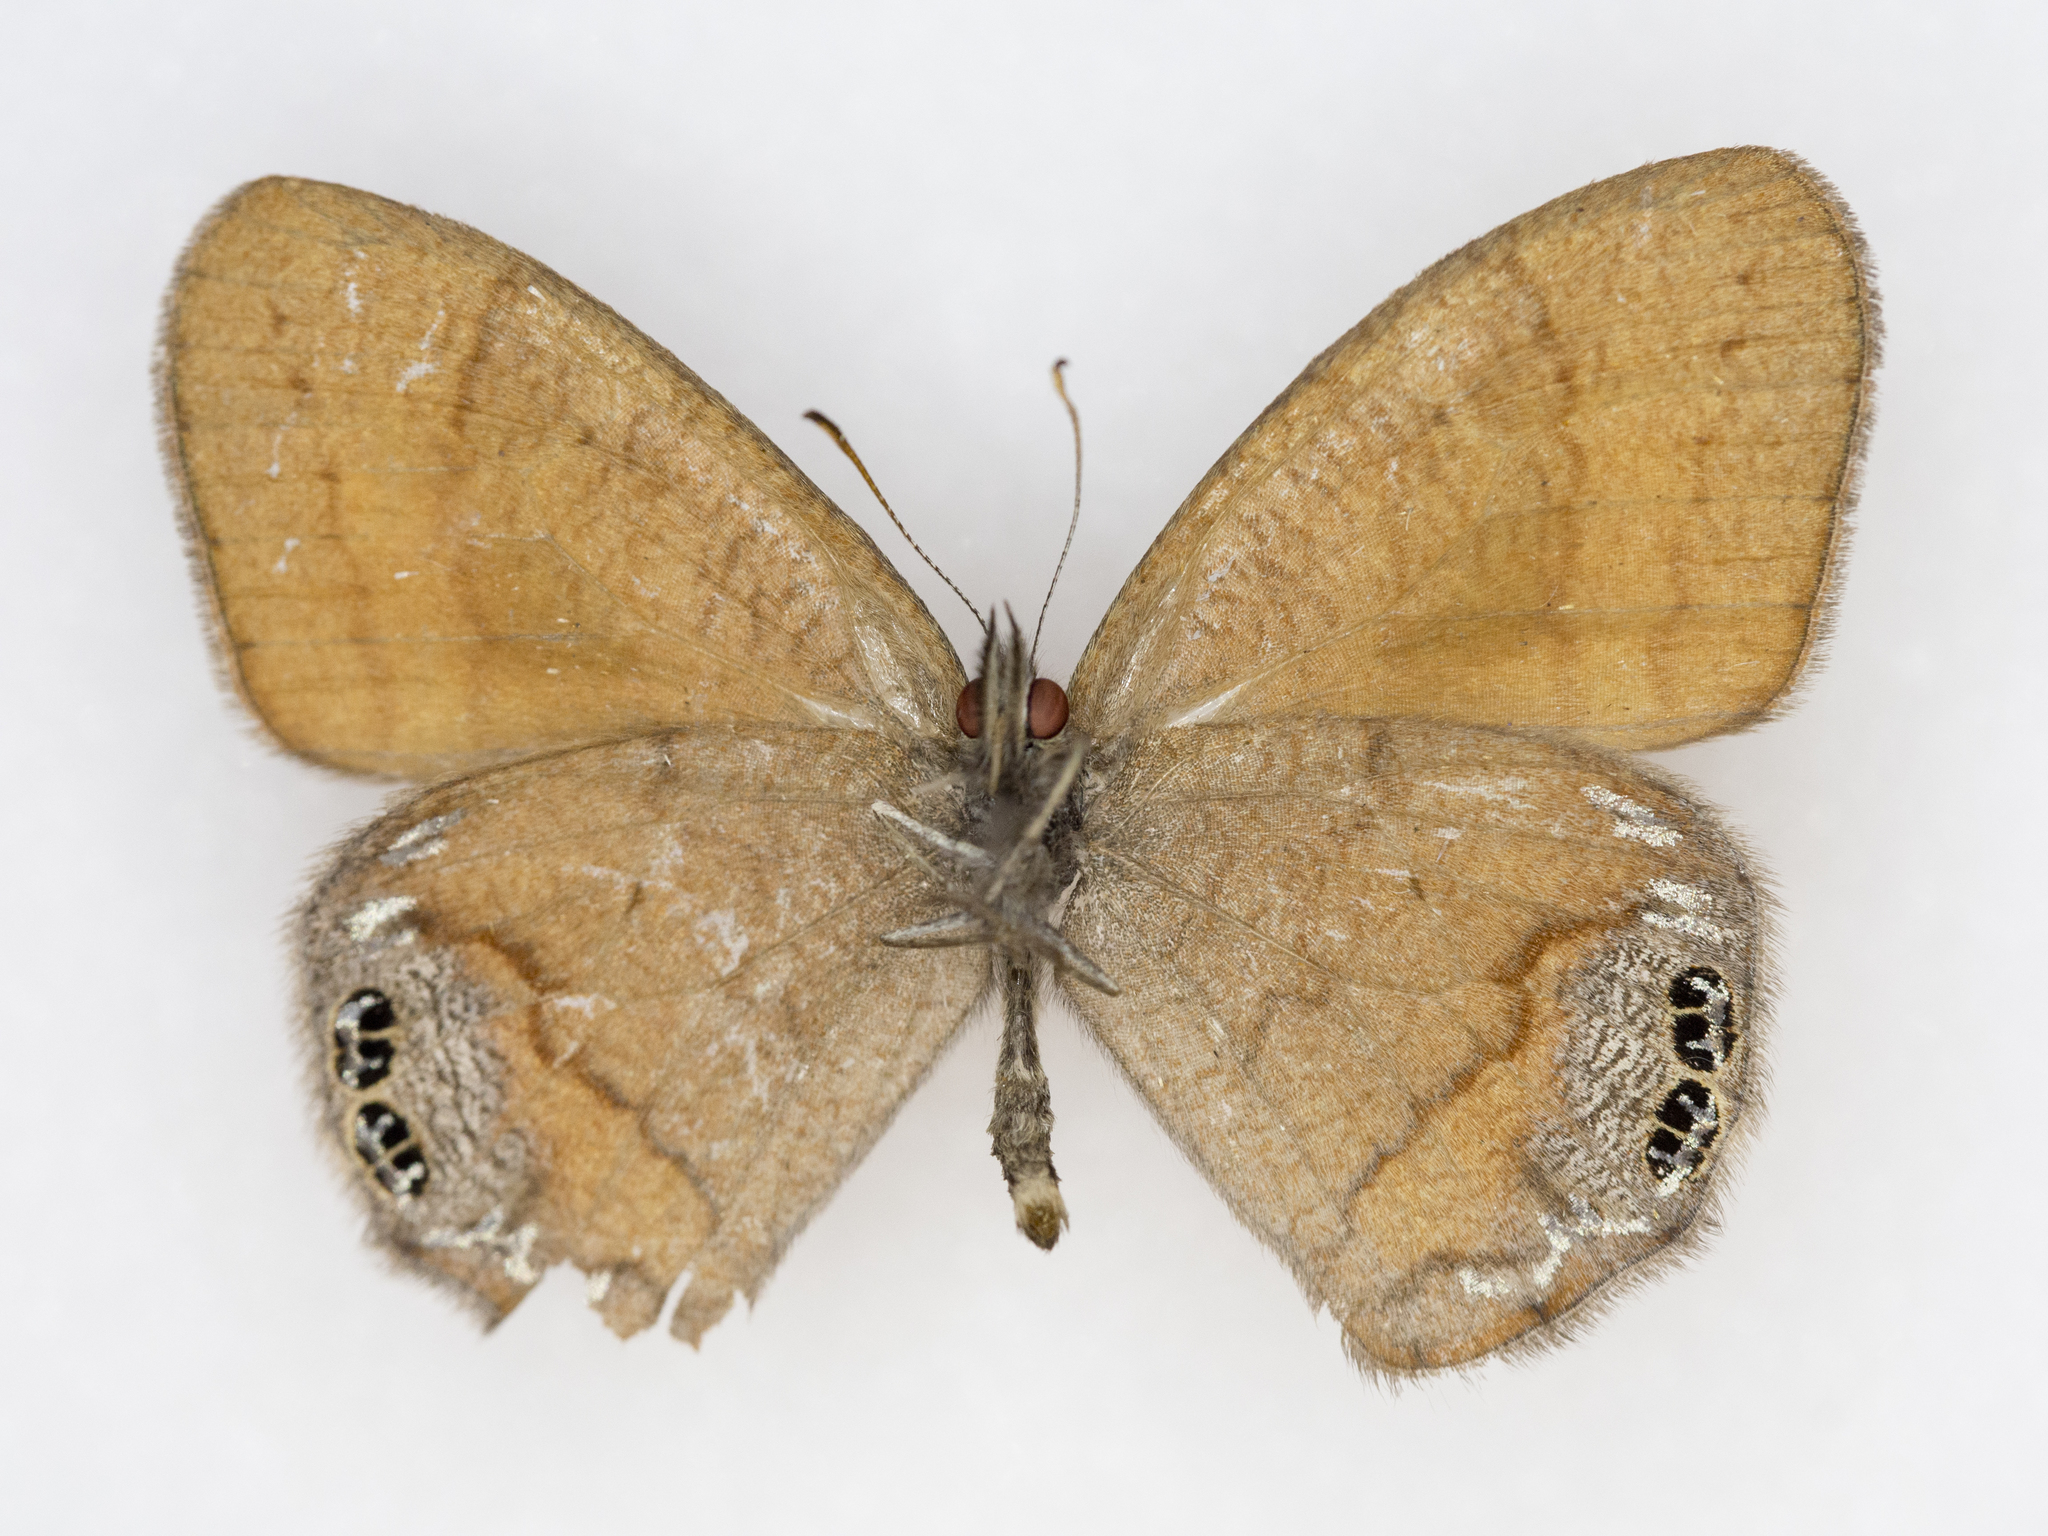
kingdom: Animalia
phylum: Arthropoda
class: Insecta
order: Lepidoptera
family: Nymphalidae
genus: Euptychia
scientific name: Euptychia Cyllopsis pertepida
